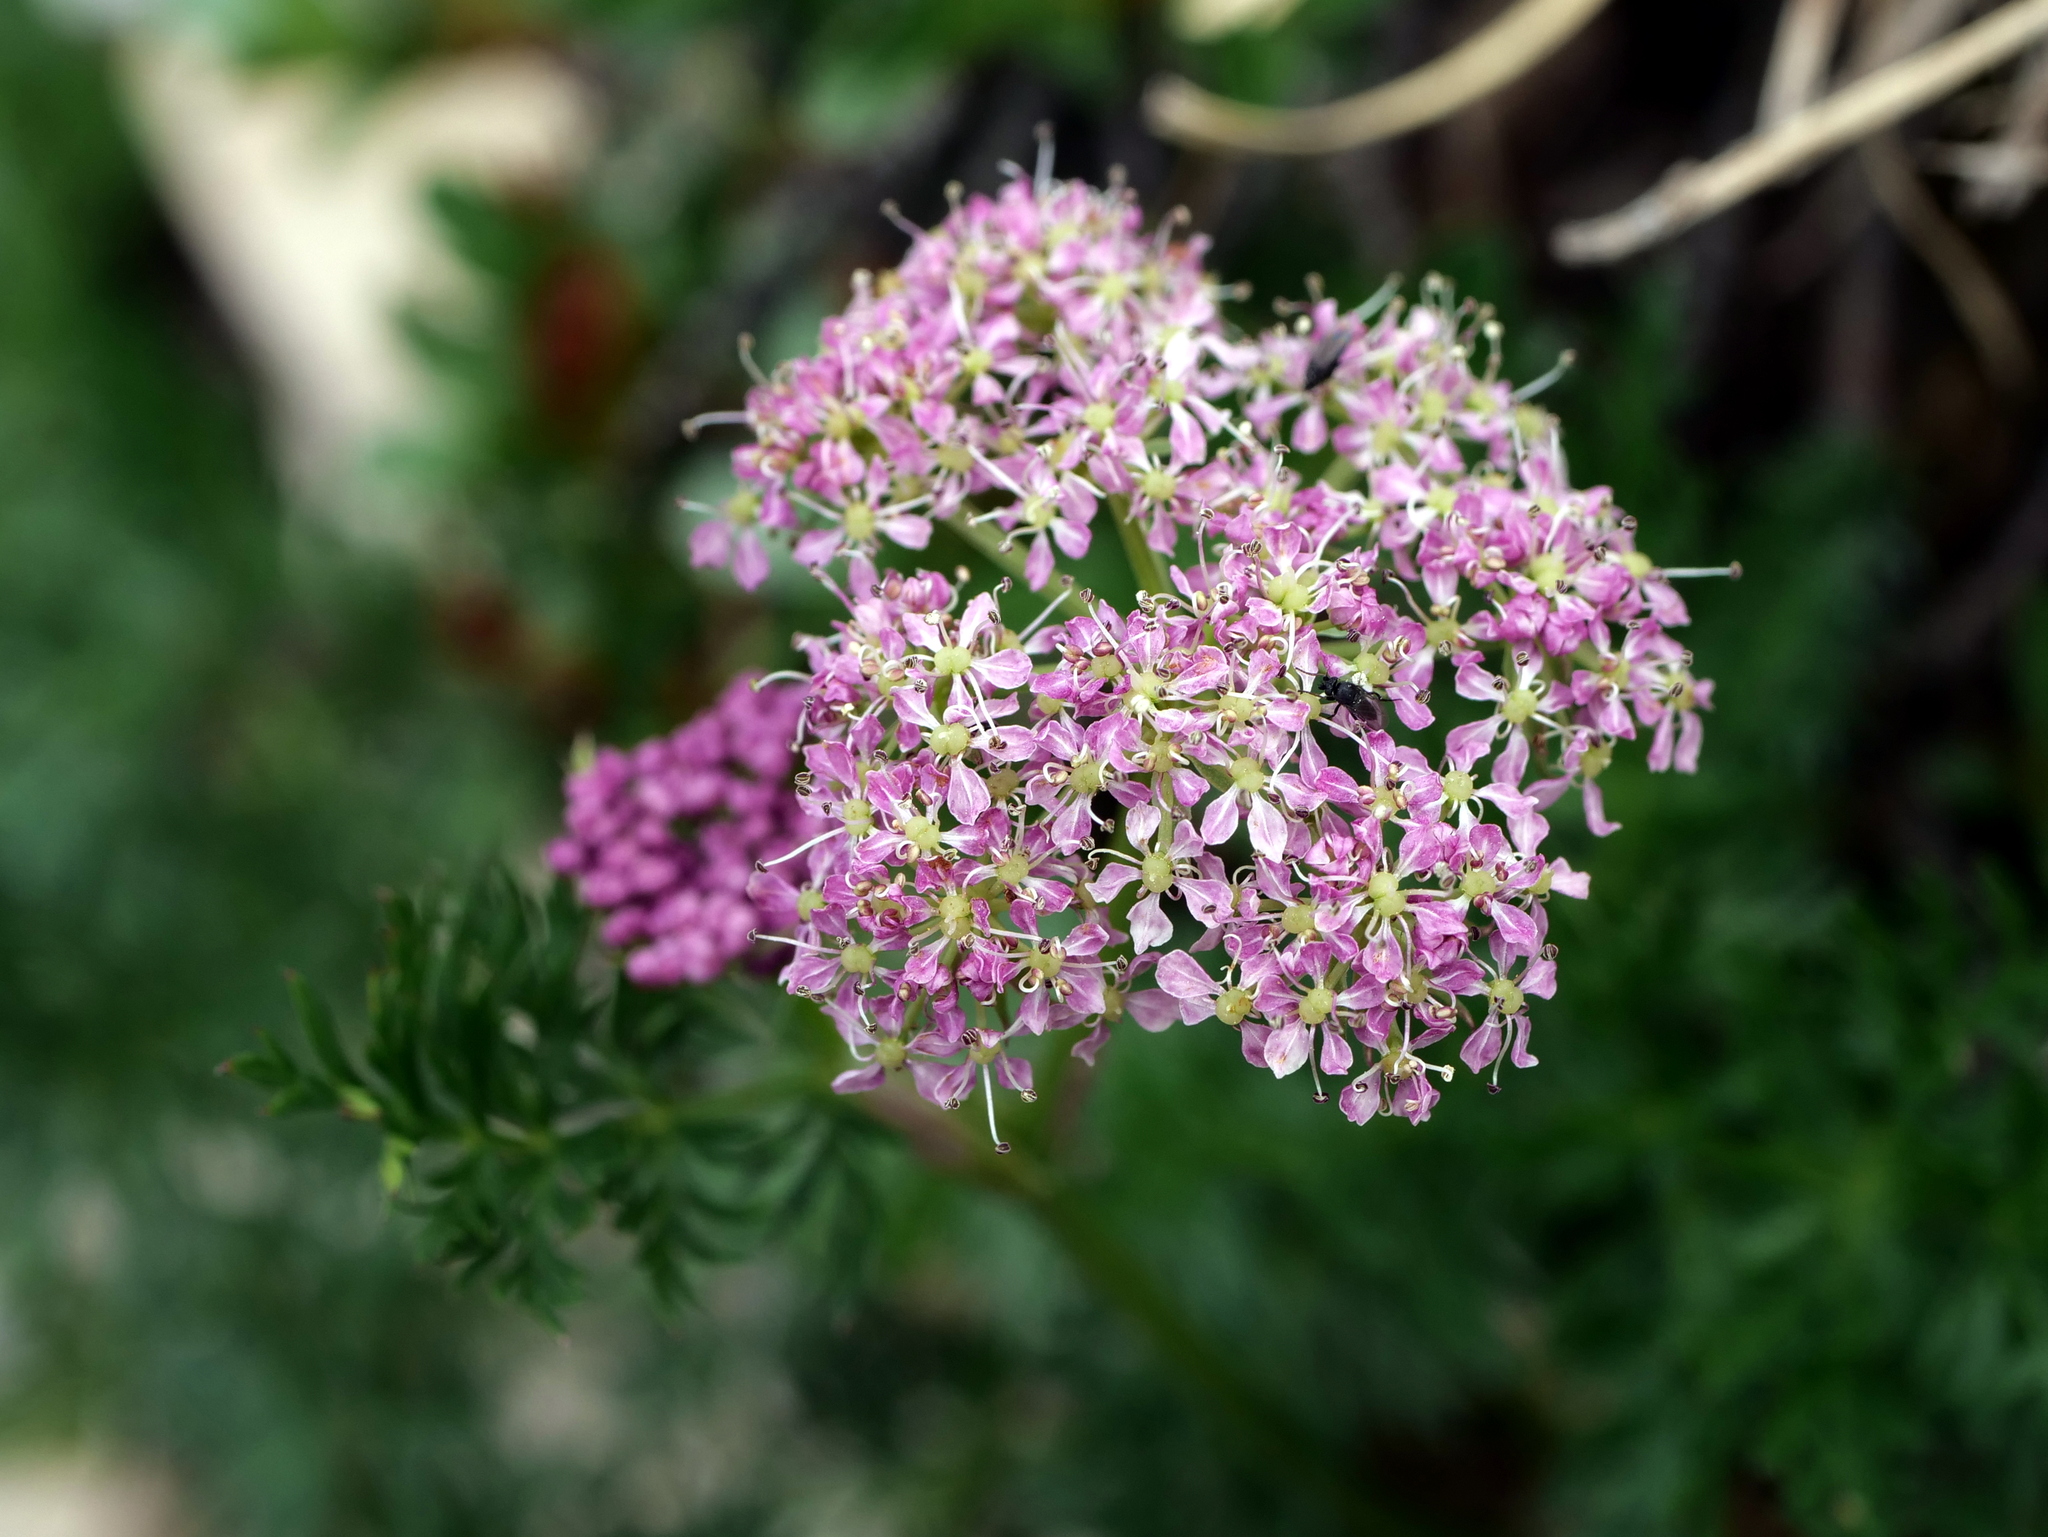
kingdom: Plantae
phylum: Tracheophyta
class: Magnoliopsida
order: Apiales
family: Apiaceae
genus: Mutellina
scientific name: Mutellina adonidifolia
